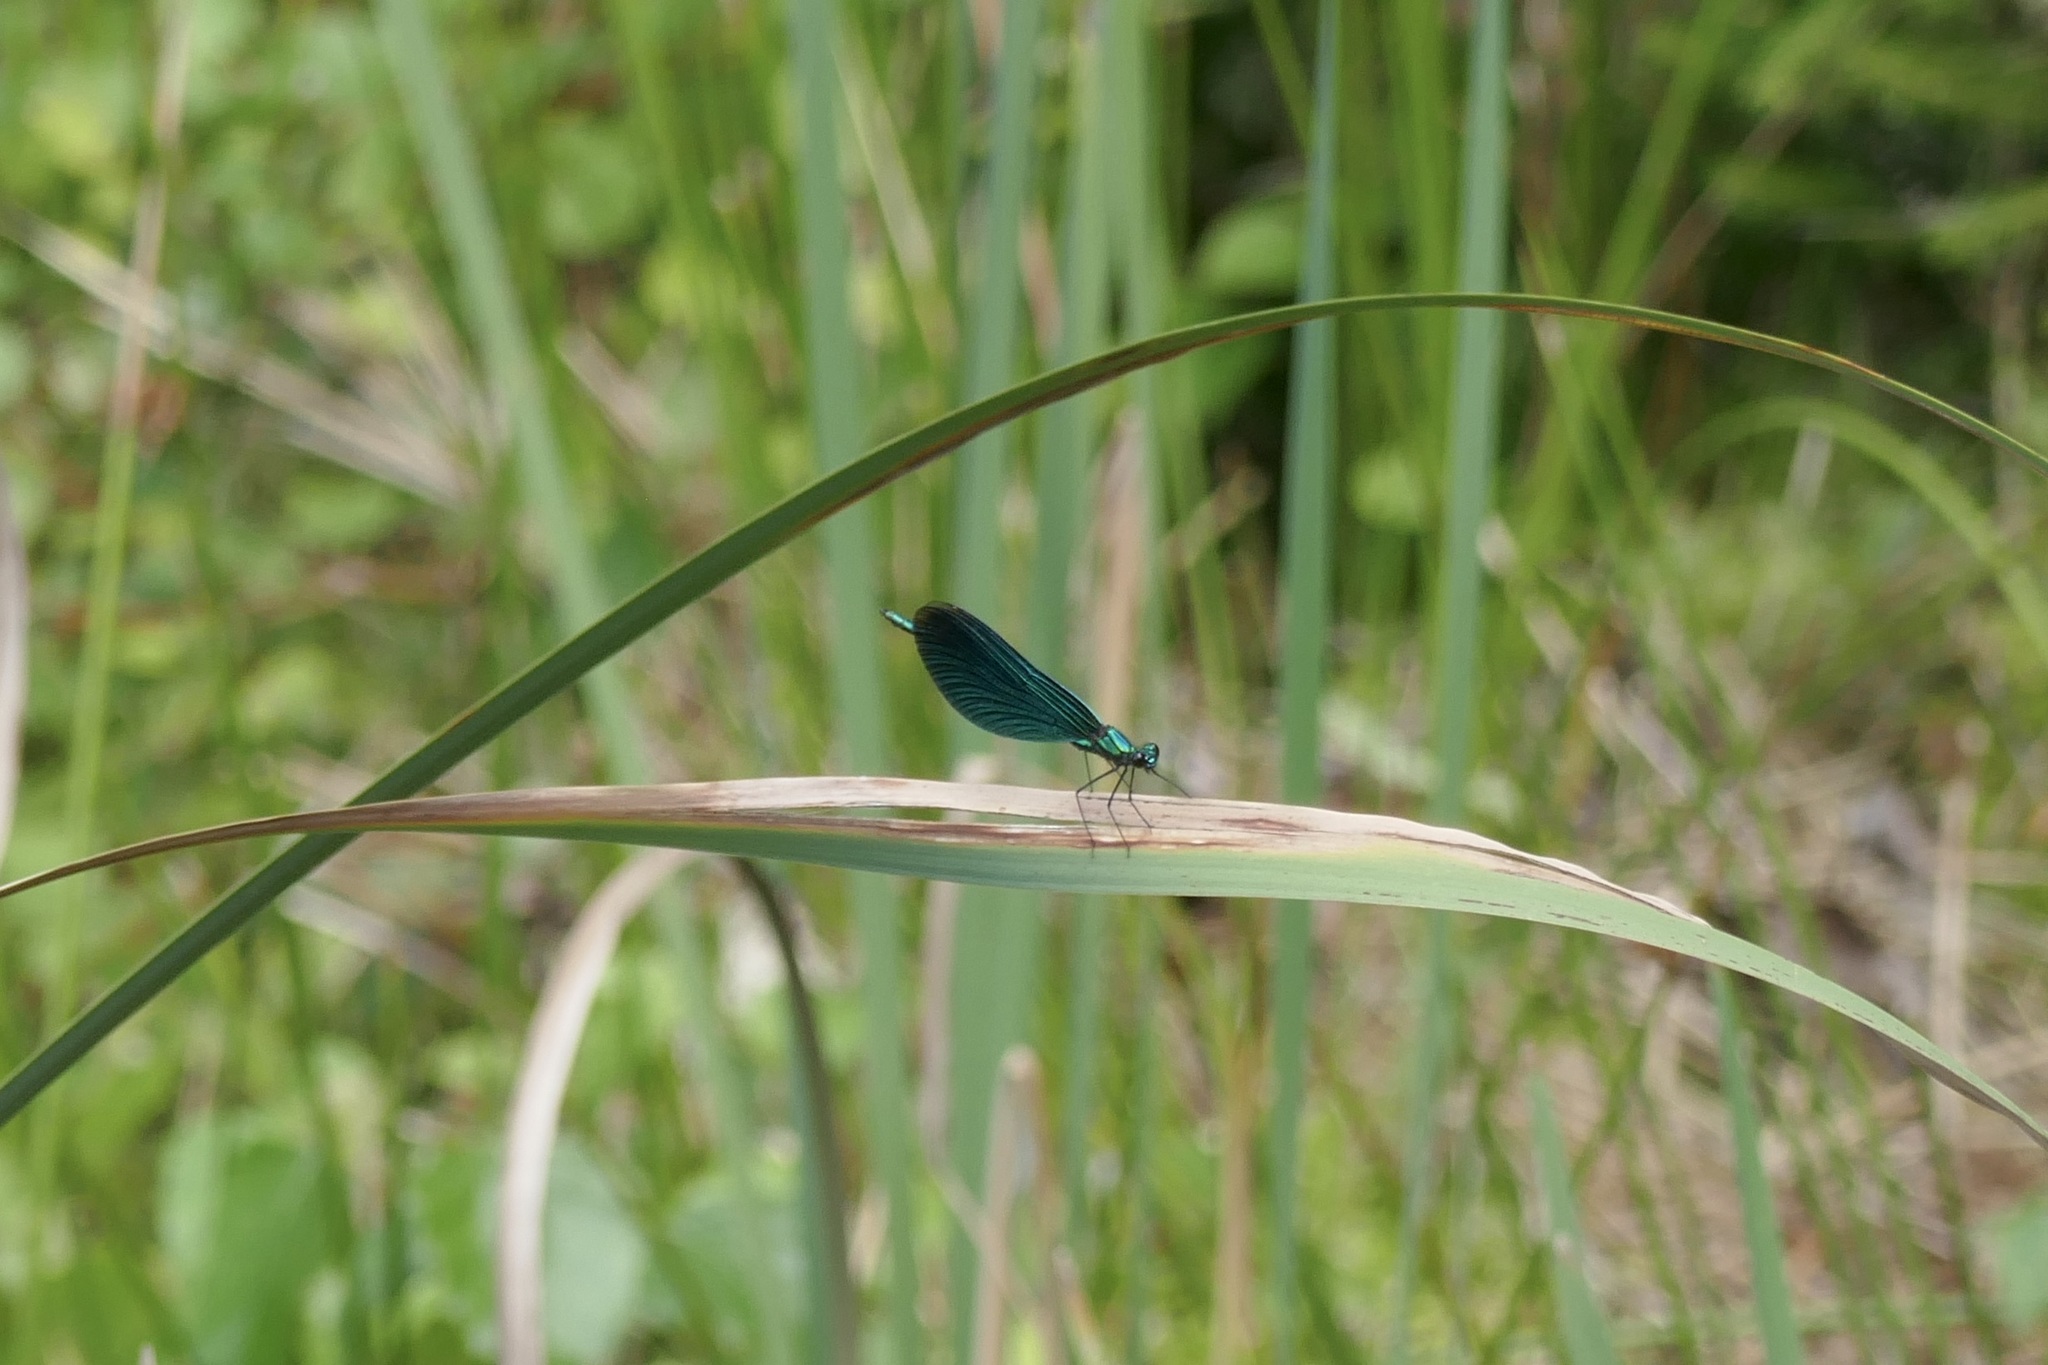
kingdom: Animalia
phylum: Arthropoda
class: Insecta
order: Odonata
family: Calopterygidae
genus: Calopteryx
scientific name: Calopteryx virgo
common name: Beautiful demoiselle
